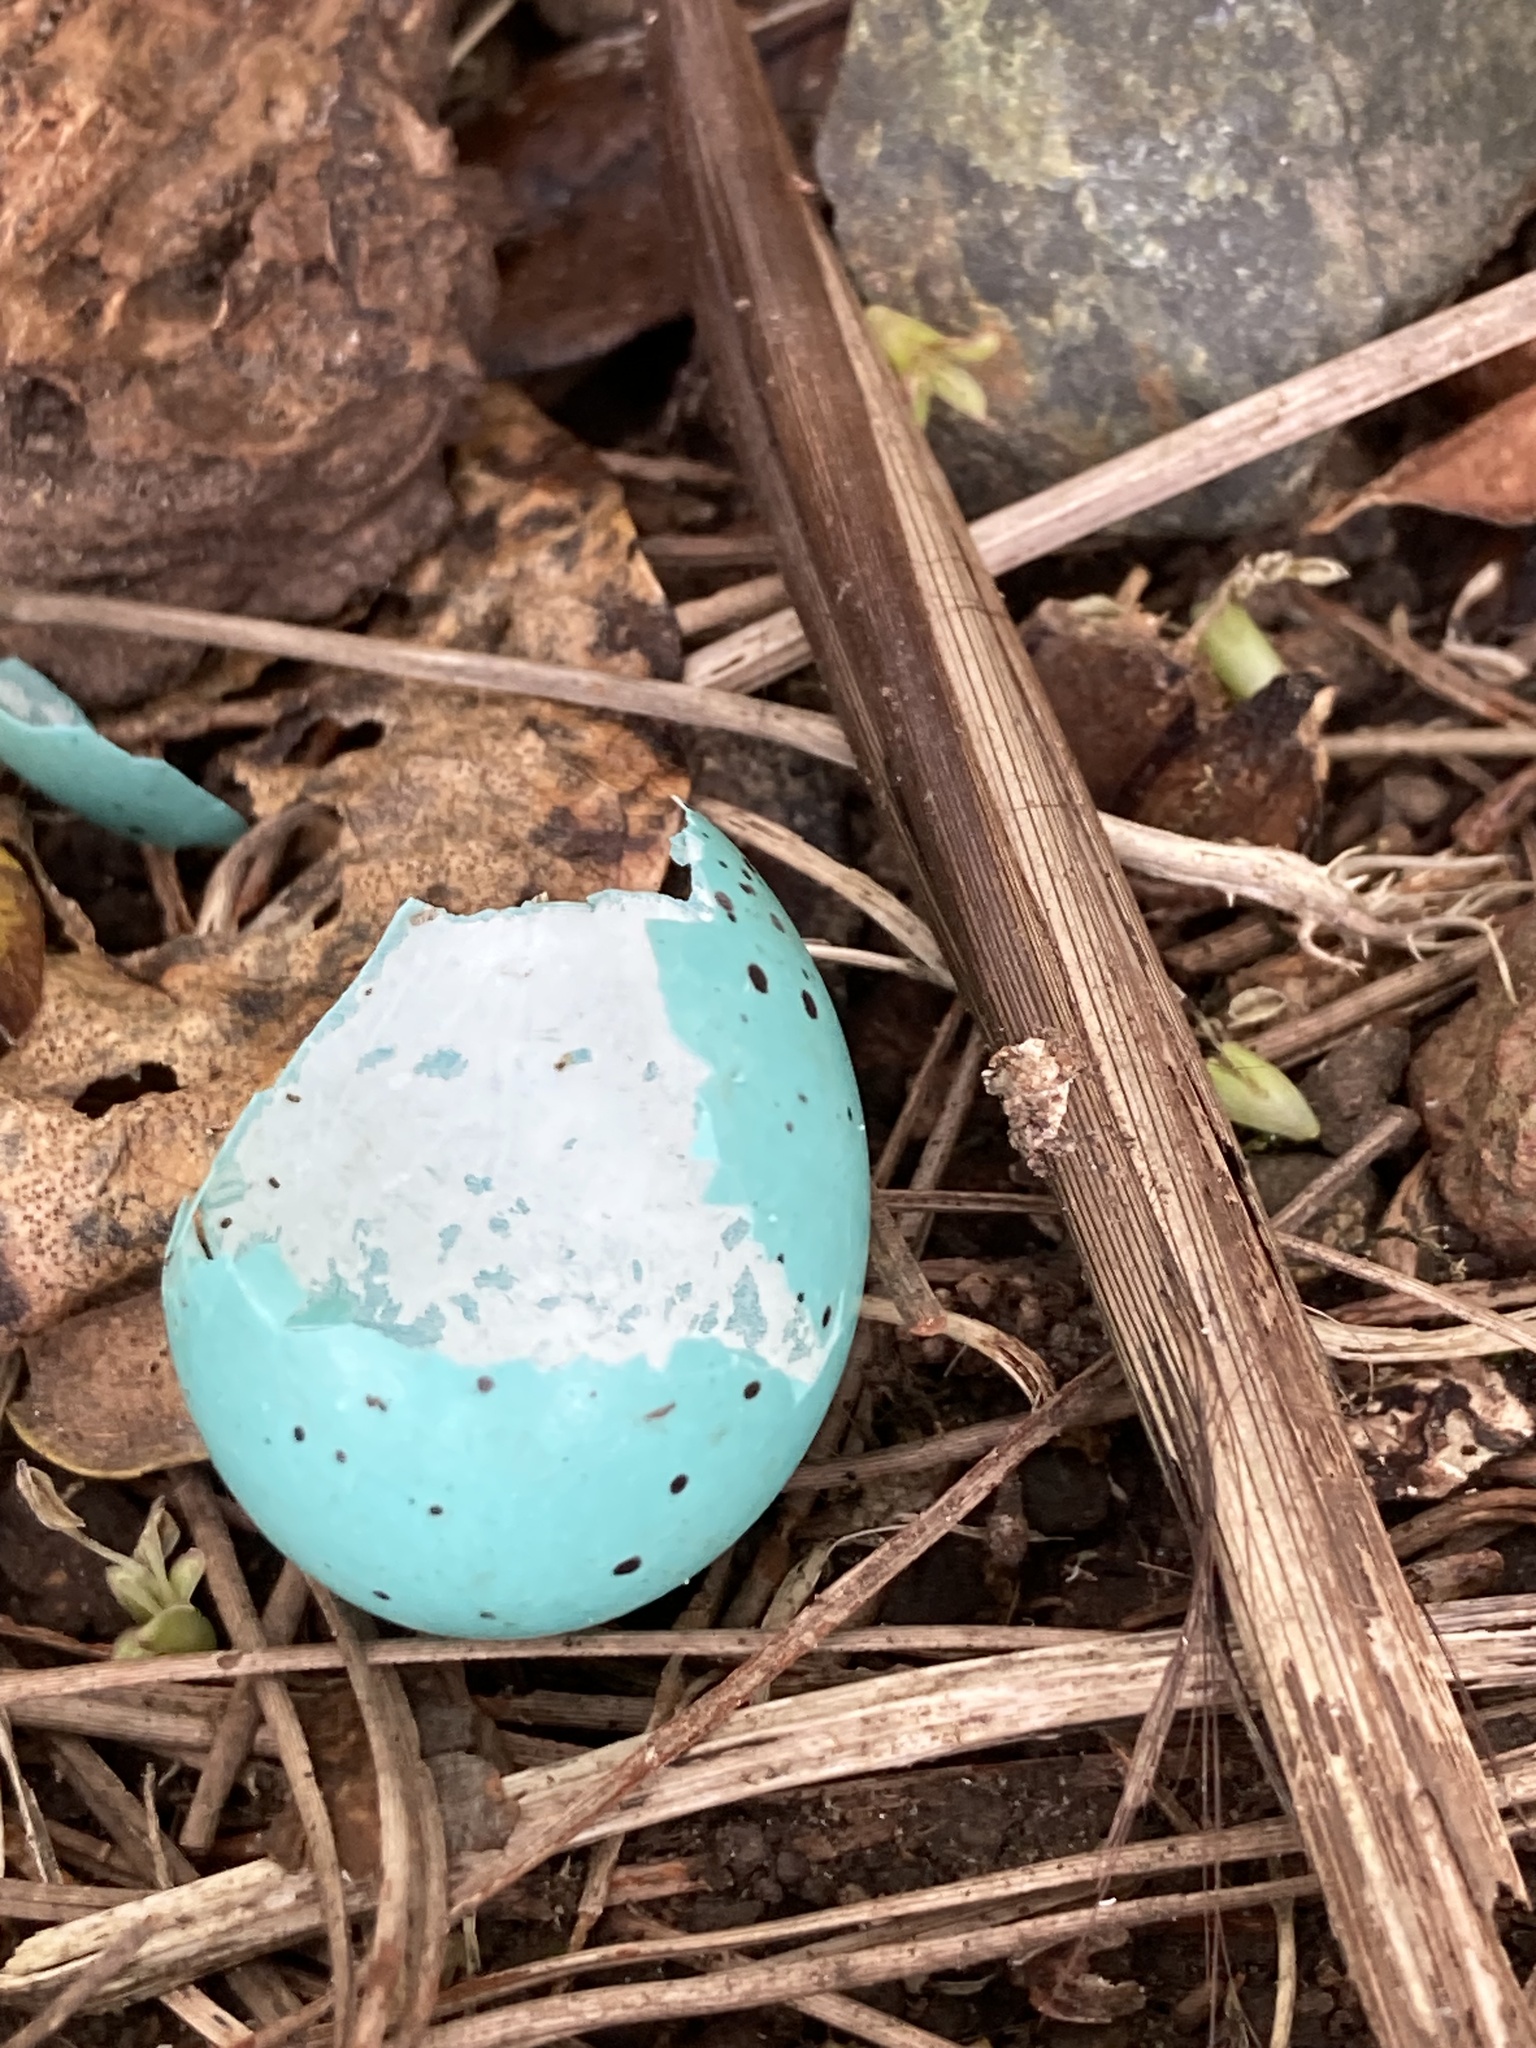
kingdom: Animalia
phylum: Chordata
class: Aves
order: Passeriformes
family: Turdidae
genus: Turdus
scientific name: Turdus philomelos
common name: Song thrush
